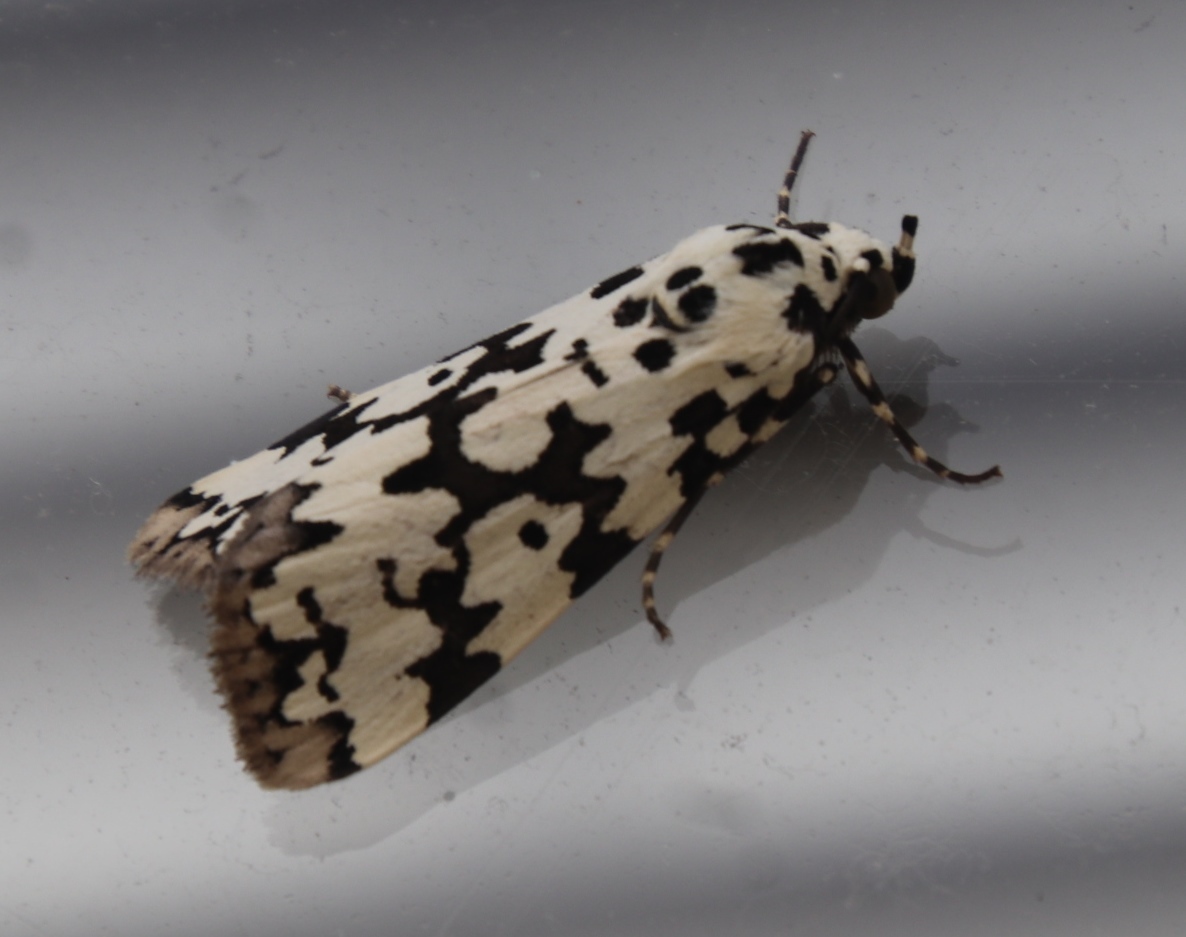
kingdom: Animalia
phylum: Arthropoda
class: Insecta
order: Lepidoptera
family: Erebidae
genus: Digama
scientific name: Digama strabonis
